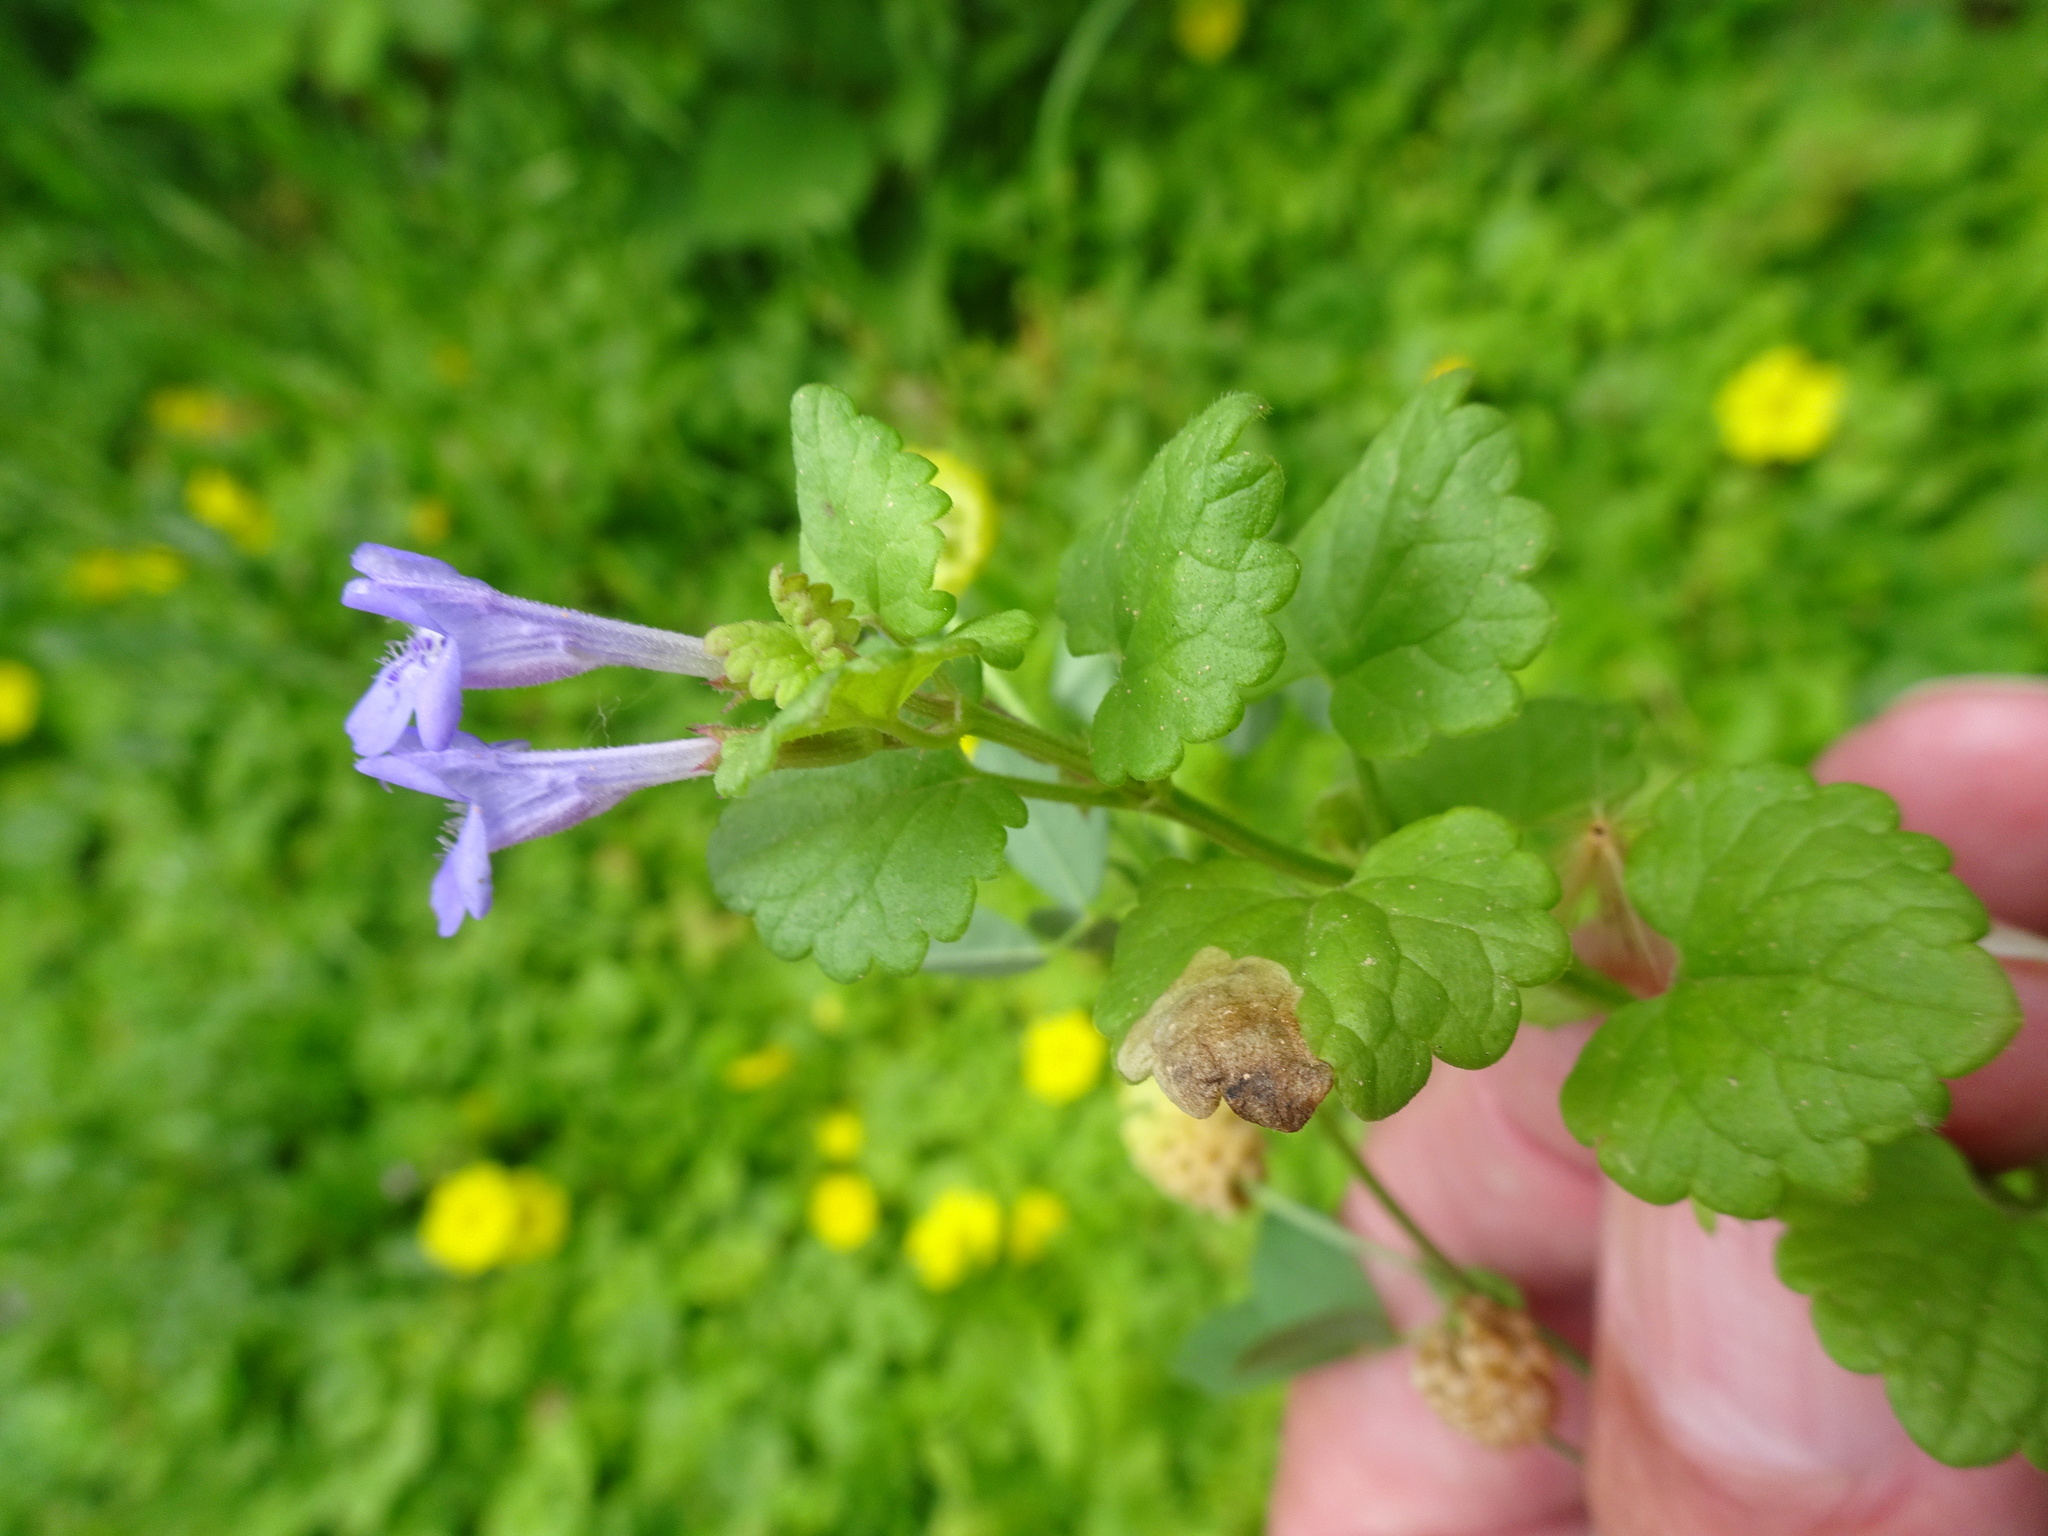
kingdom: Plantae
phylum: Tracheophyta
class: Magnoliopsida
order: Lamiales
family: Lamiaceae
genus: Glechoma
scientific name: Glechoma hederacea
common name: Ground ivy
